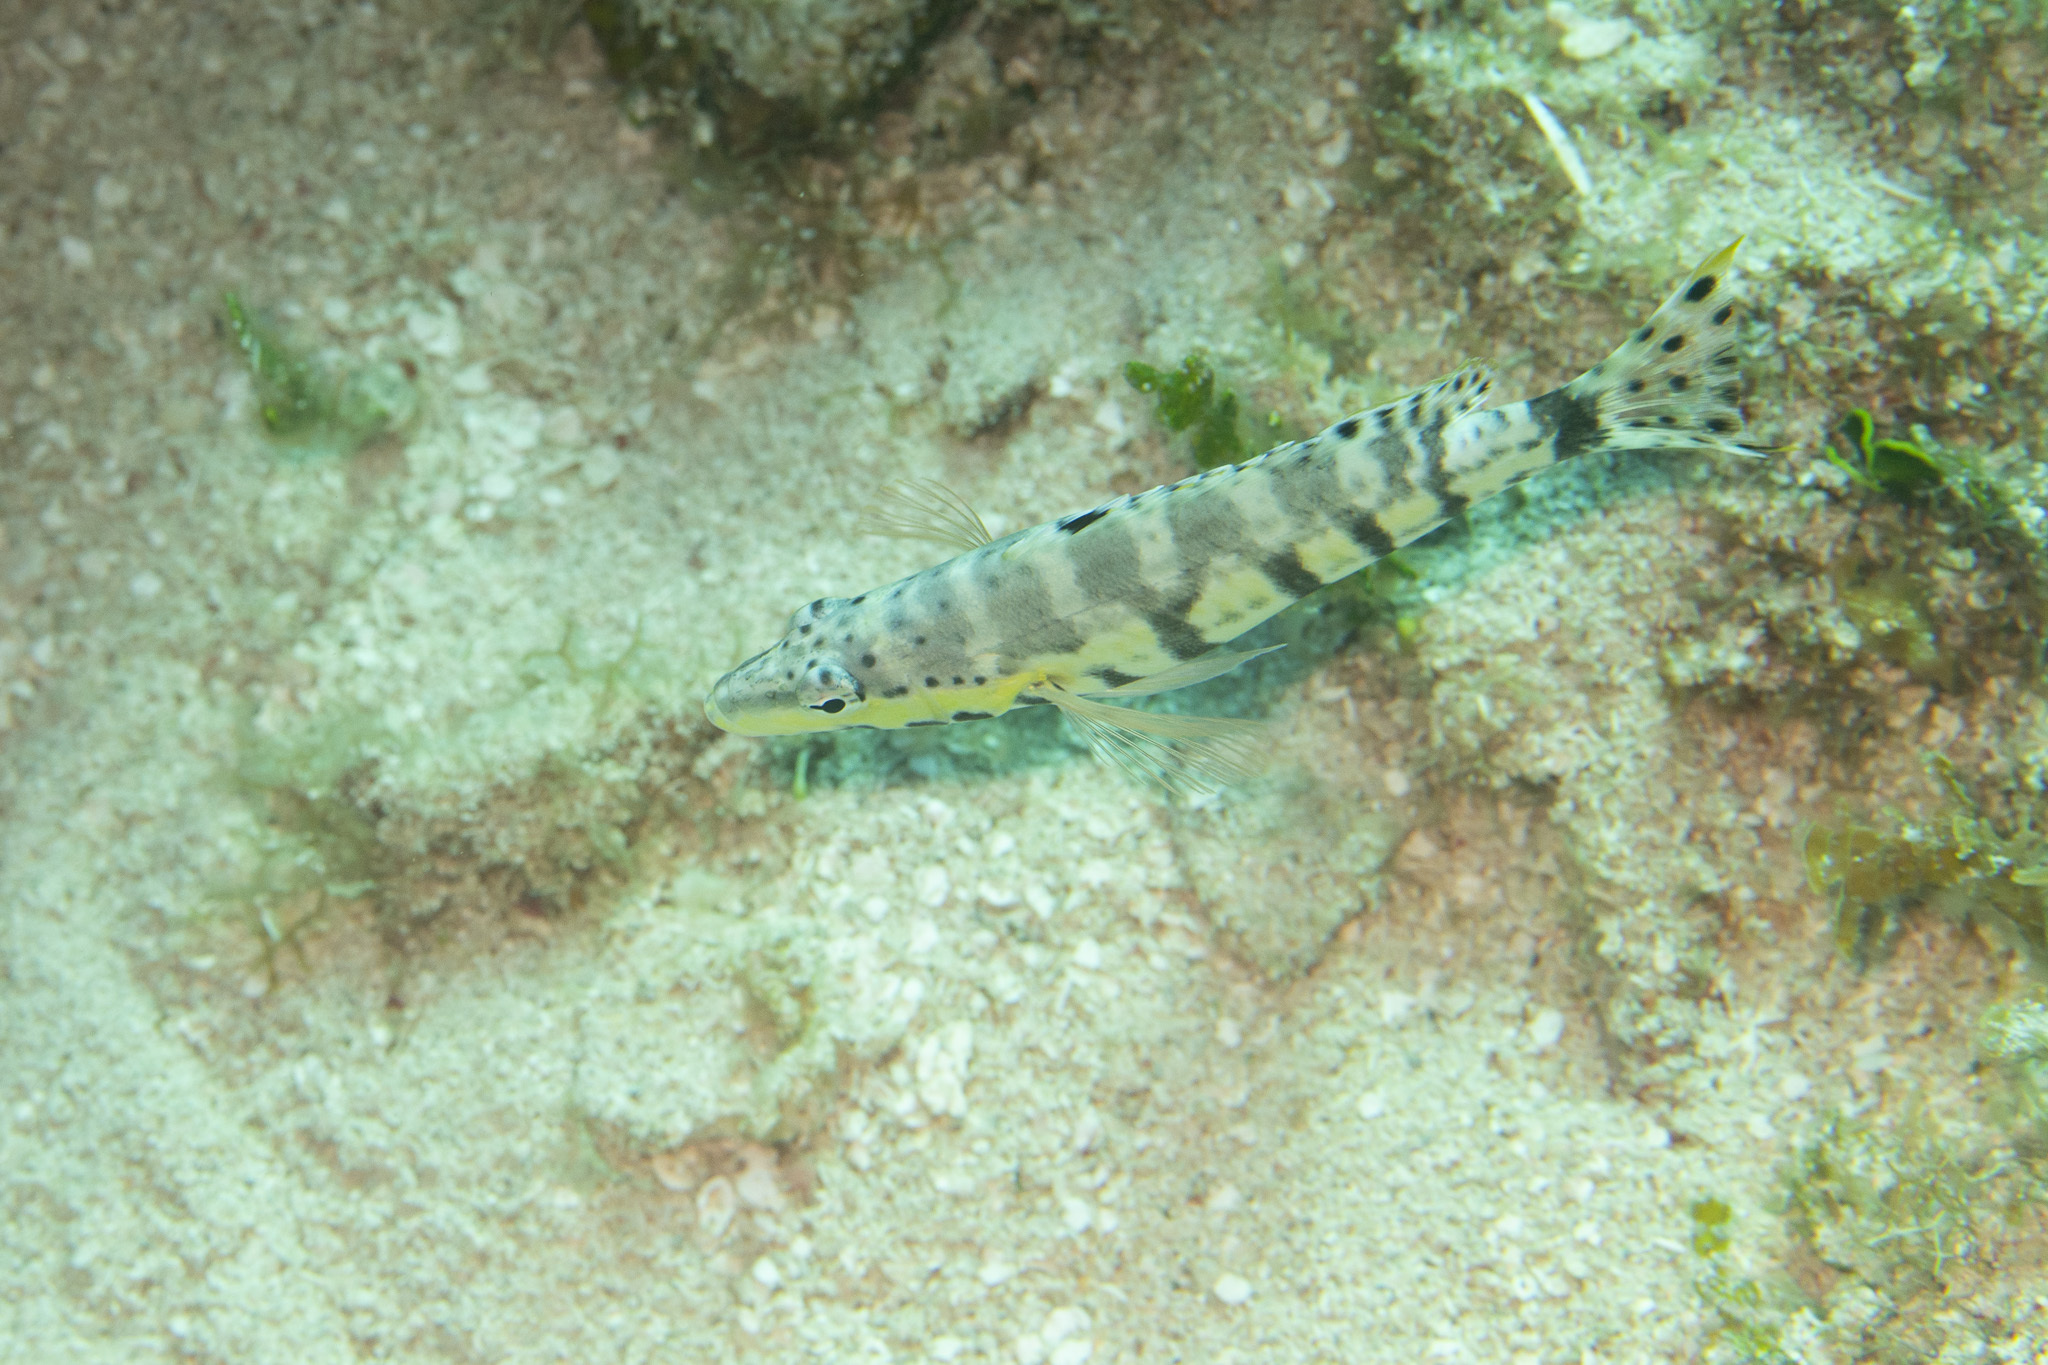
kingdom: Animalia
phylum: Chordata
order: Perciformes
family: Serranidae
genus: Serranus
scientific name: Serranus tigrinus
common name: Harlequin bass
